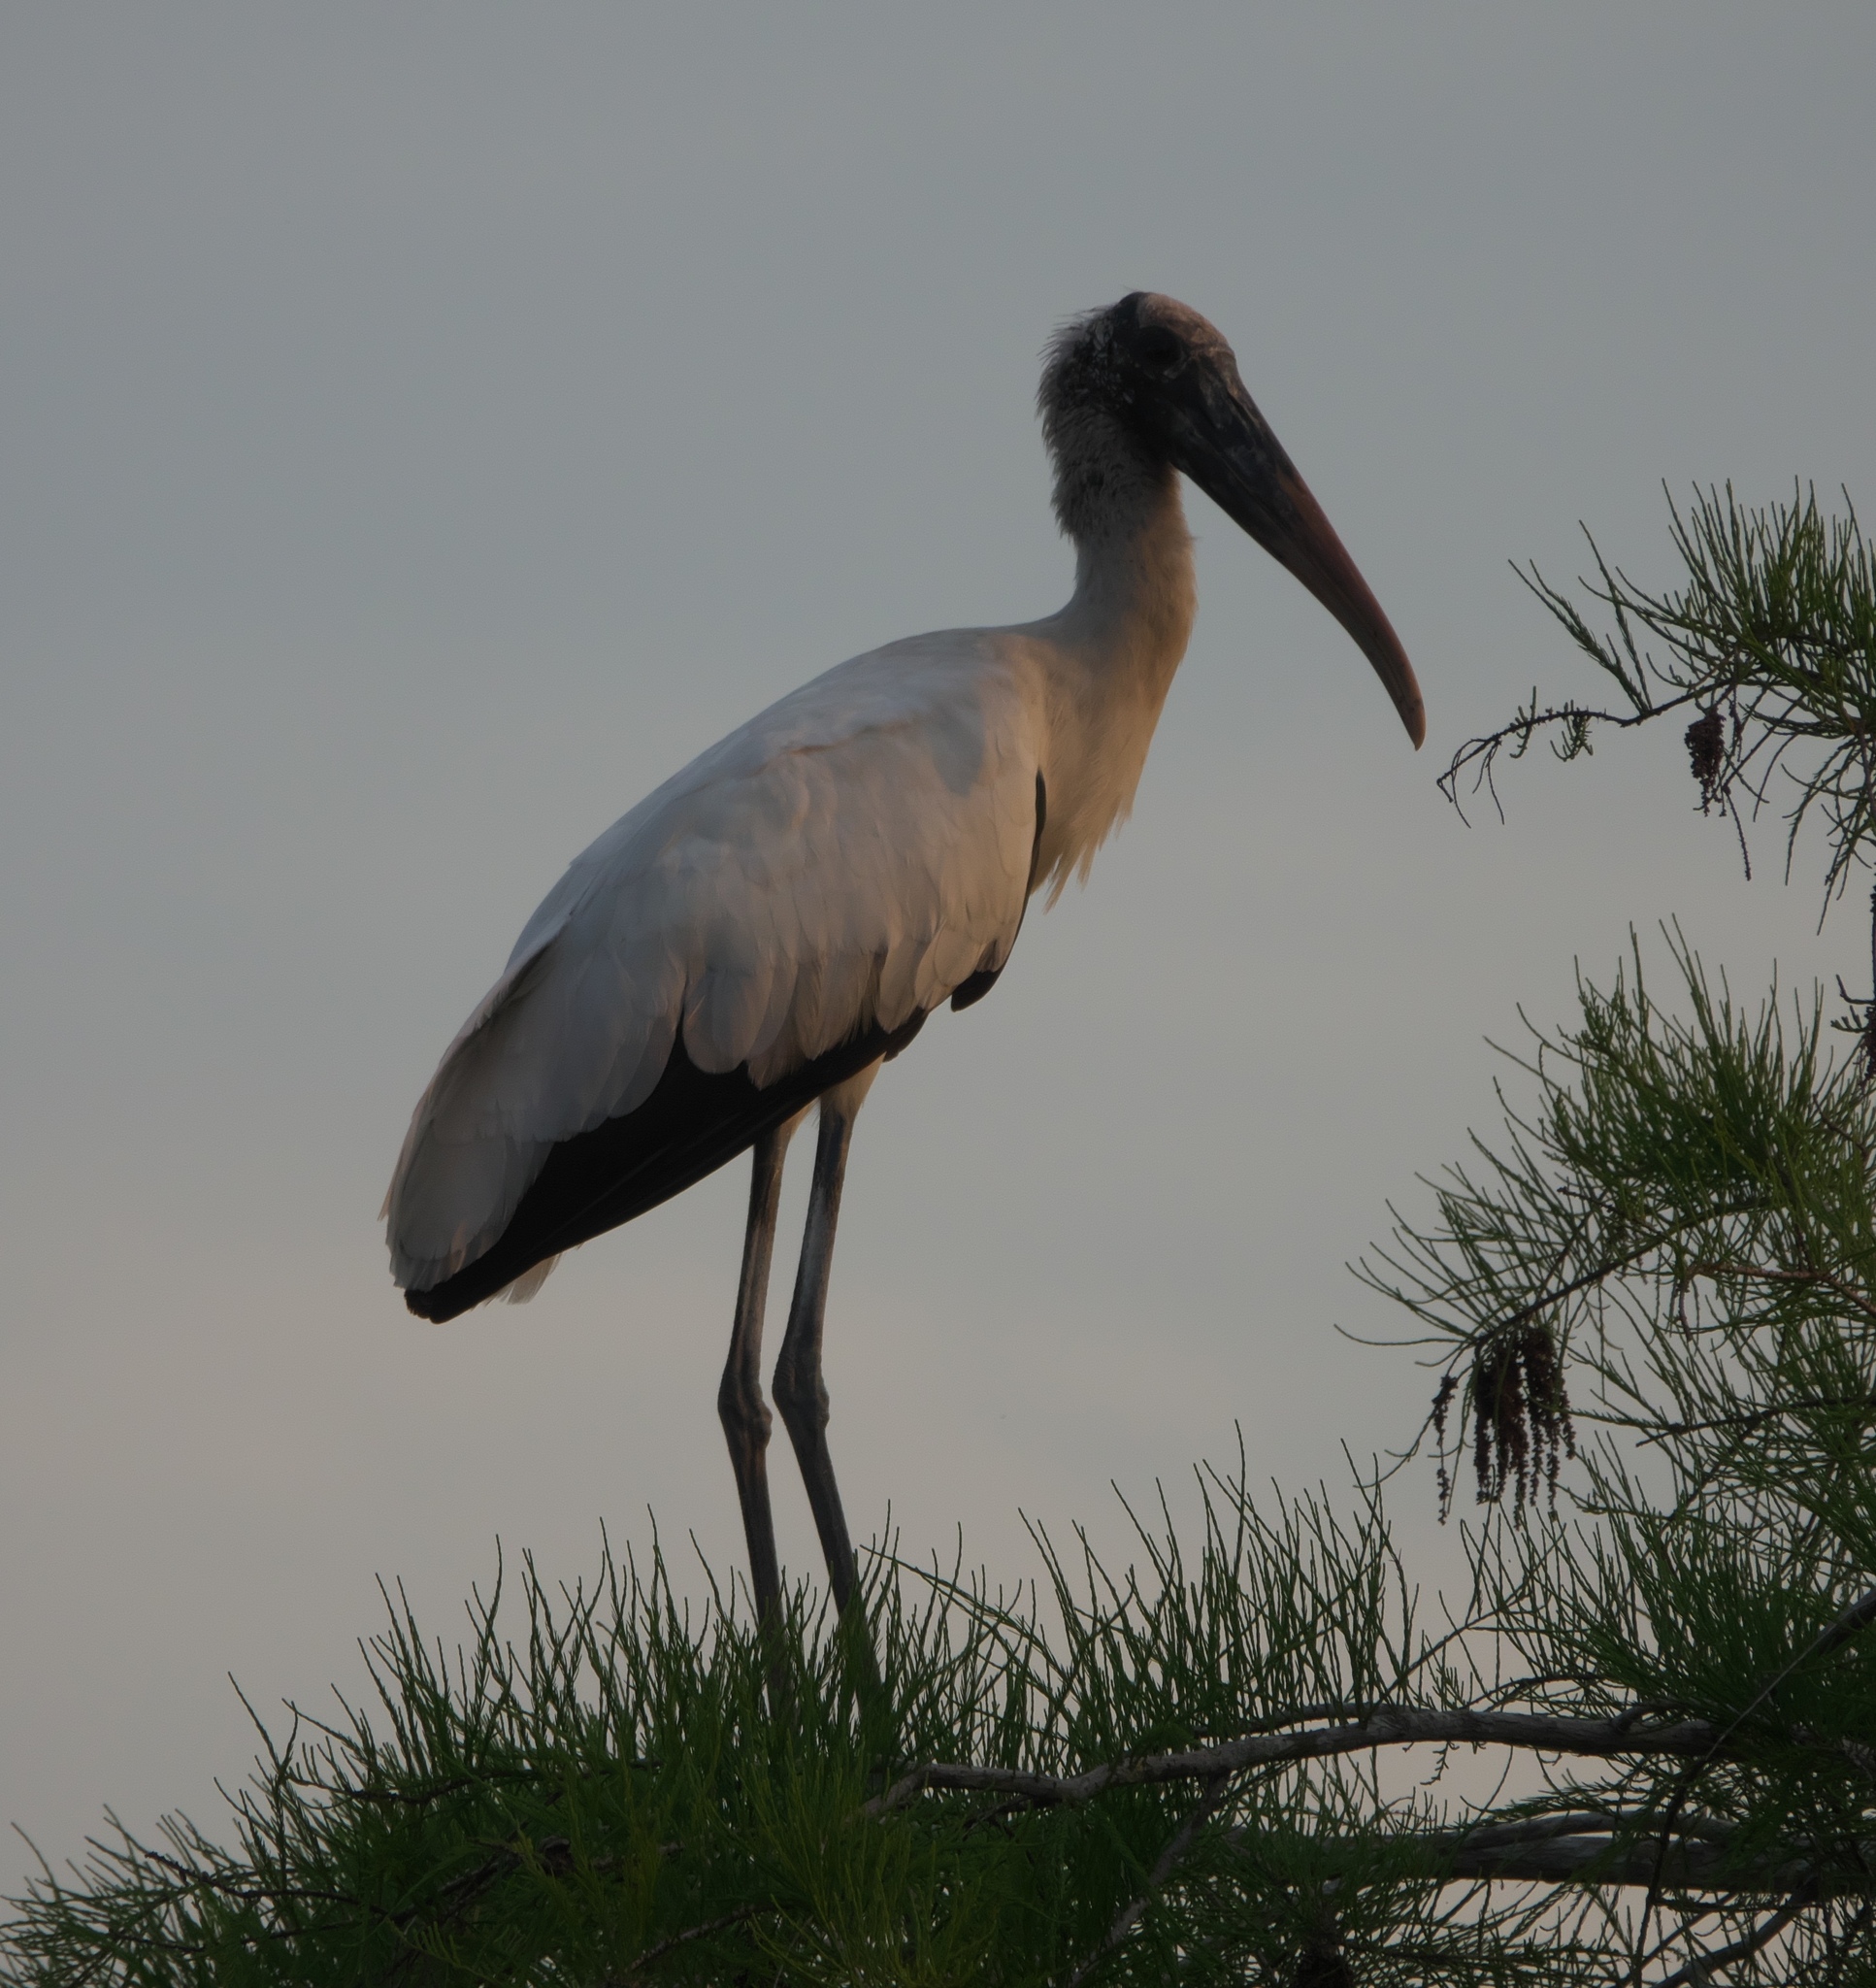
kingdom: Animalia
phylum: Chordata
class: Aves
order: Ciconiiformes
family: Ciconiidae
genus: Mycteria
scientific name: Mycteria americana
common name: Wood stork
